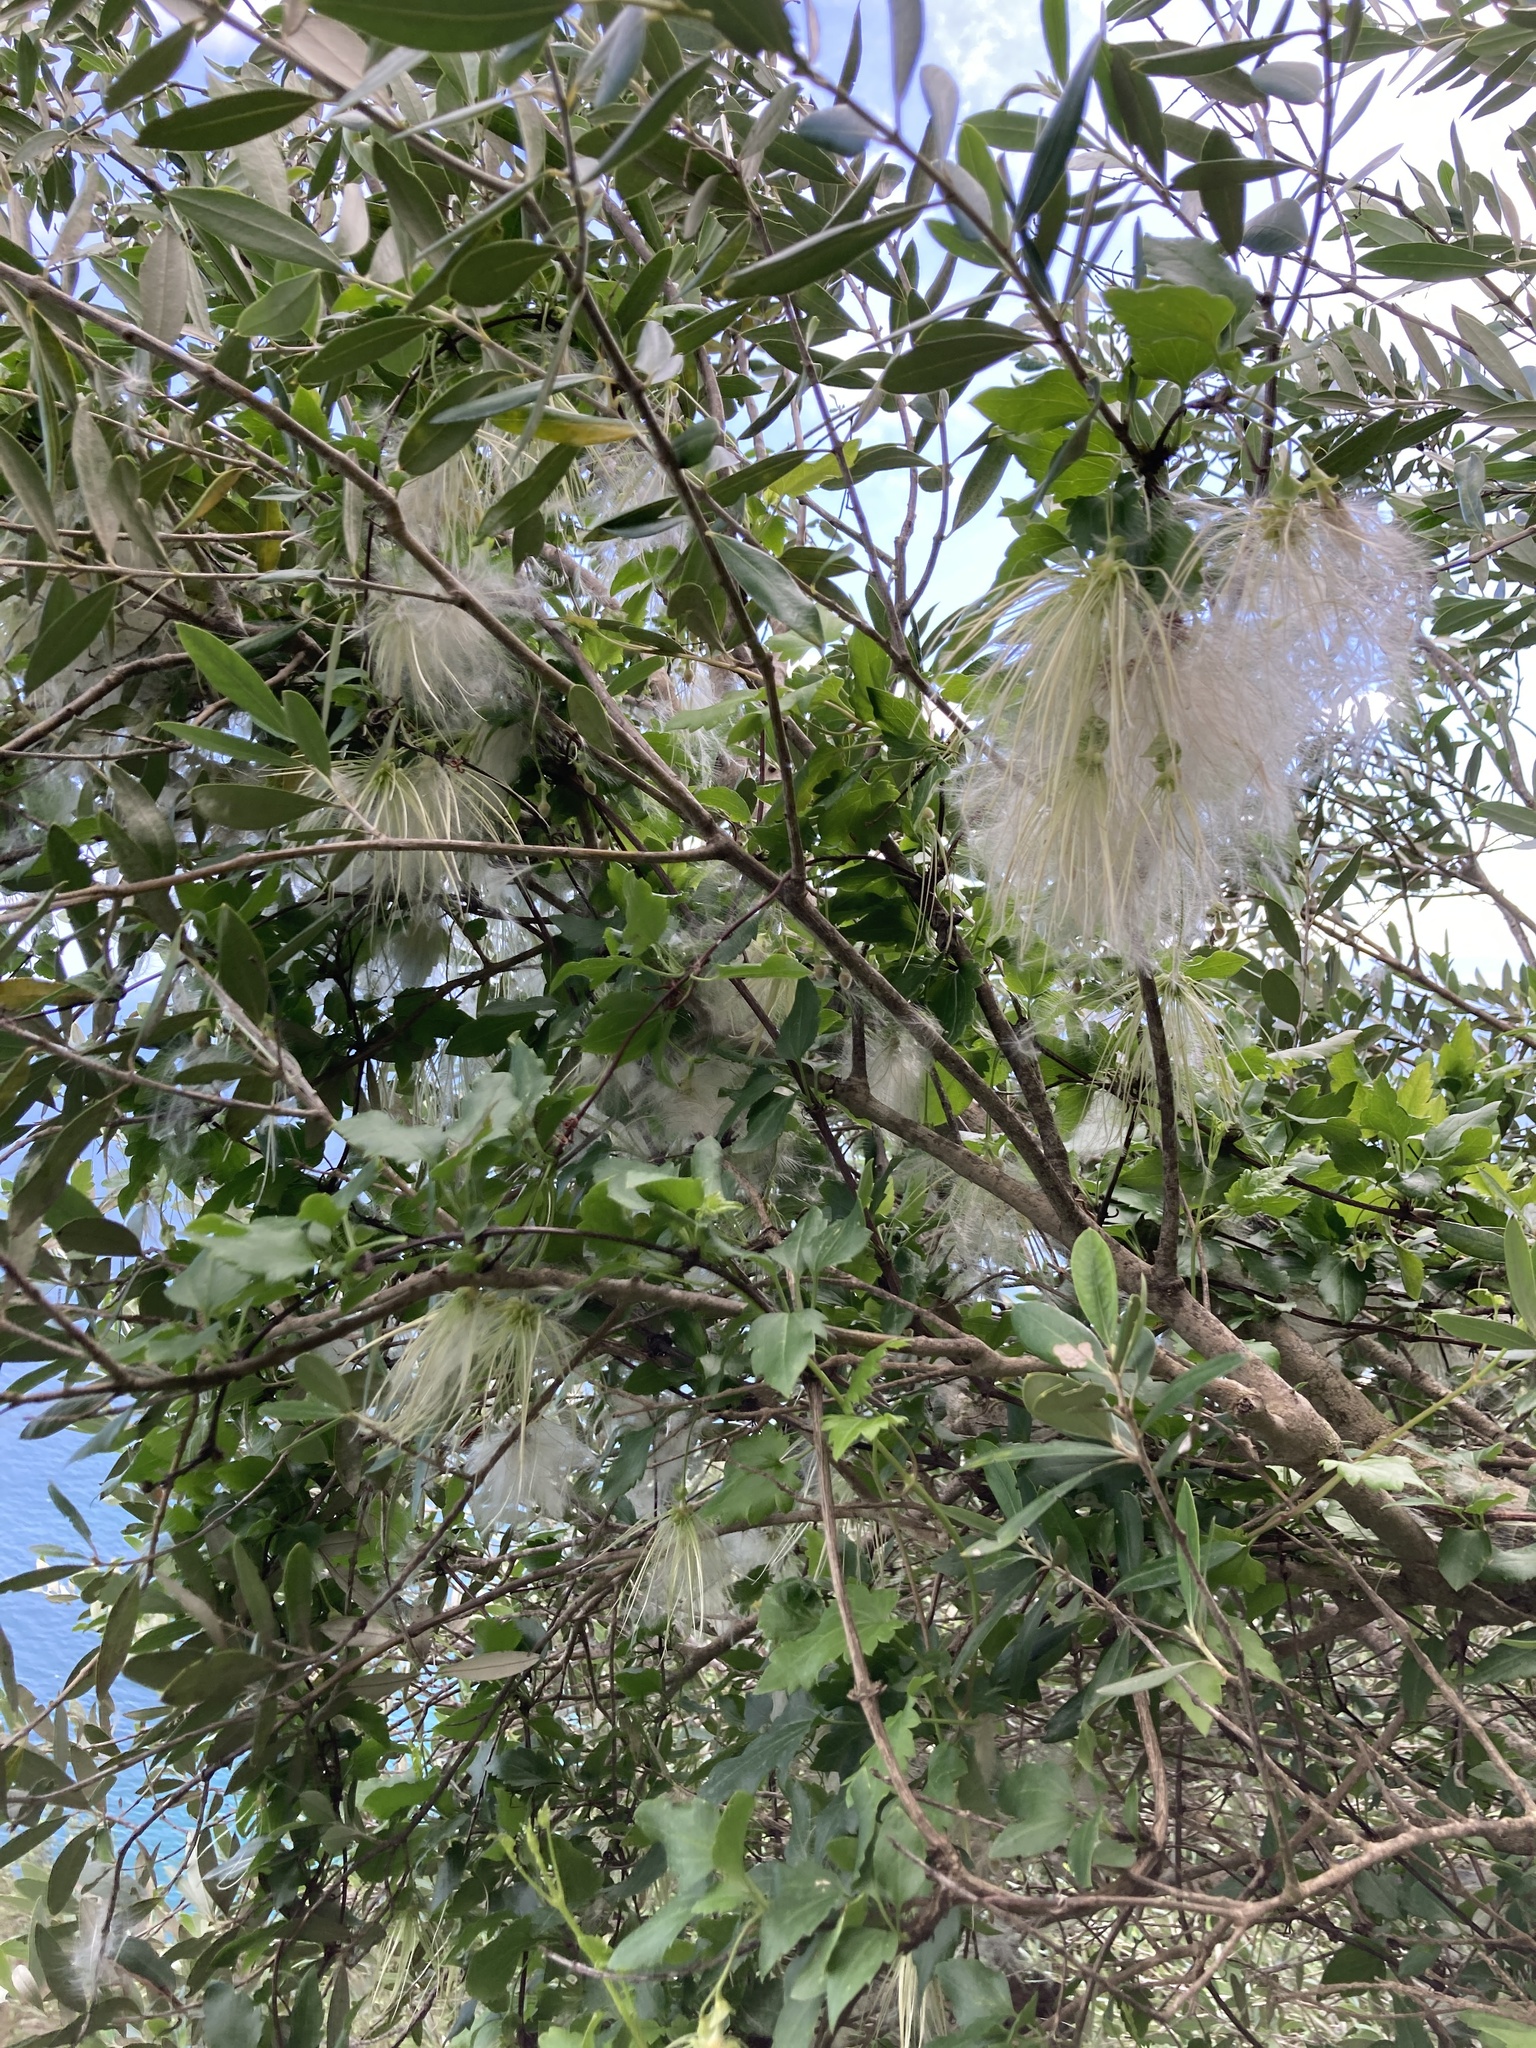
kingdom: Plantae
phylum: Tracheophyta
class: Magnoliopsida
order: Ranunculales
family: Ranunculaceae
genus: Clematis
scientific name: Clematis cirrhosa
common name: Early virgin's-bower
